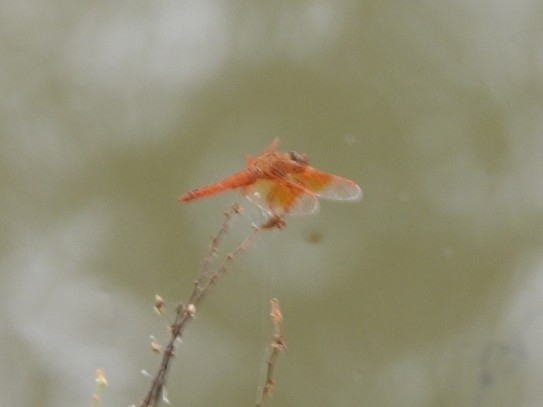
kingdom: Animalia
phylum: Arthropoda
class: Insecta
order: Odonata
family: Libellulidae
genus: Brachythemis
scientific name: Brachythemis contaminata
